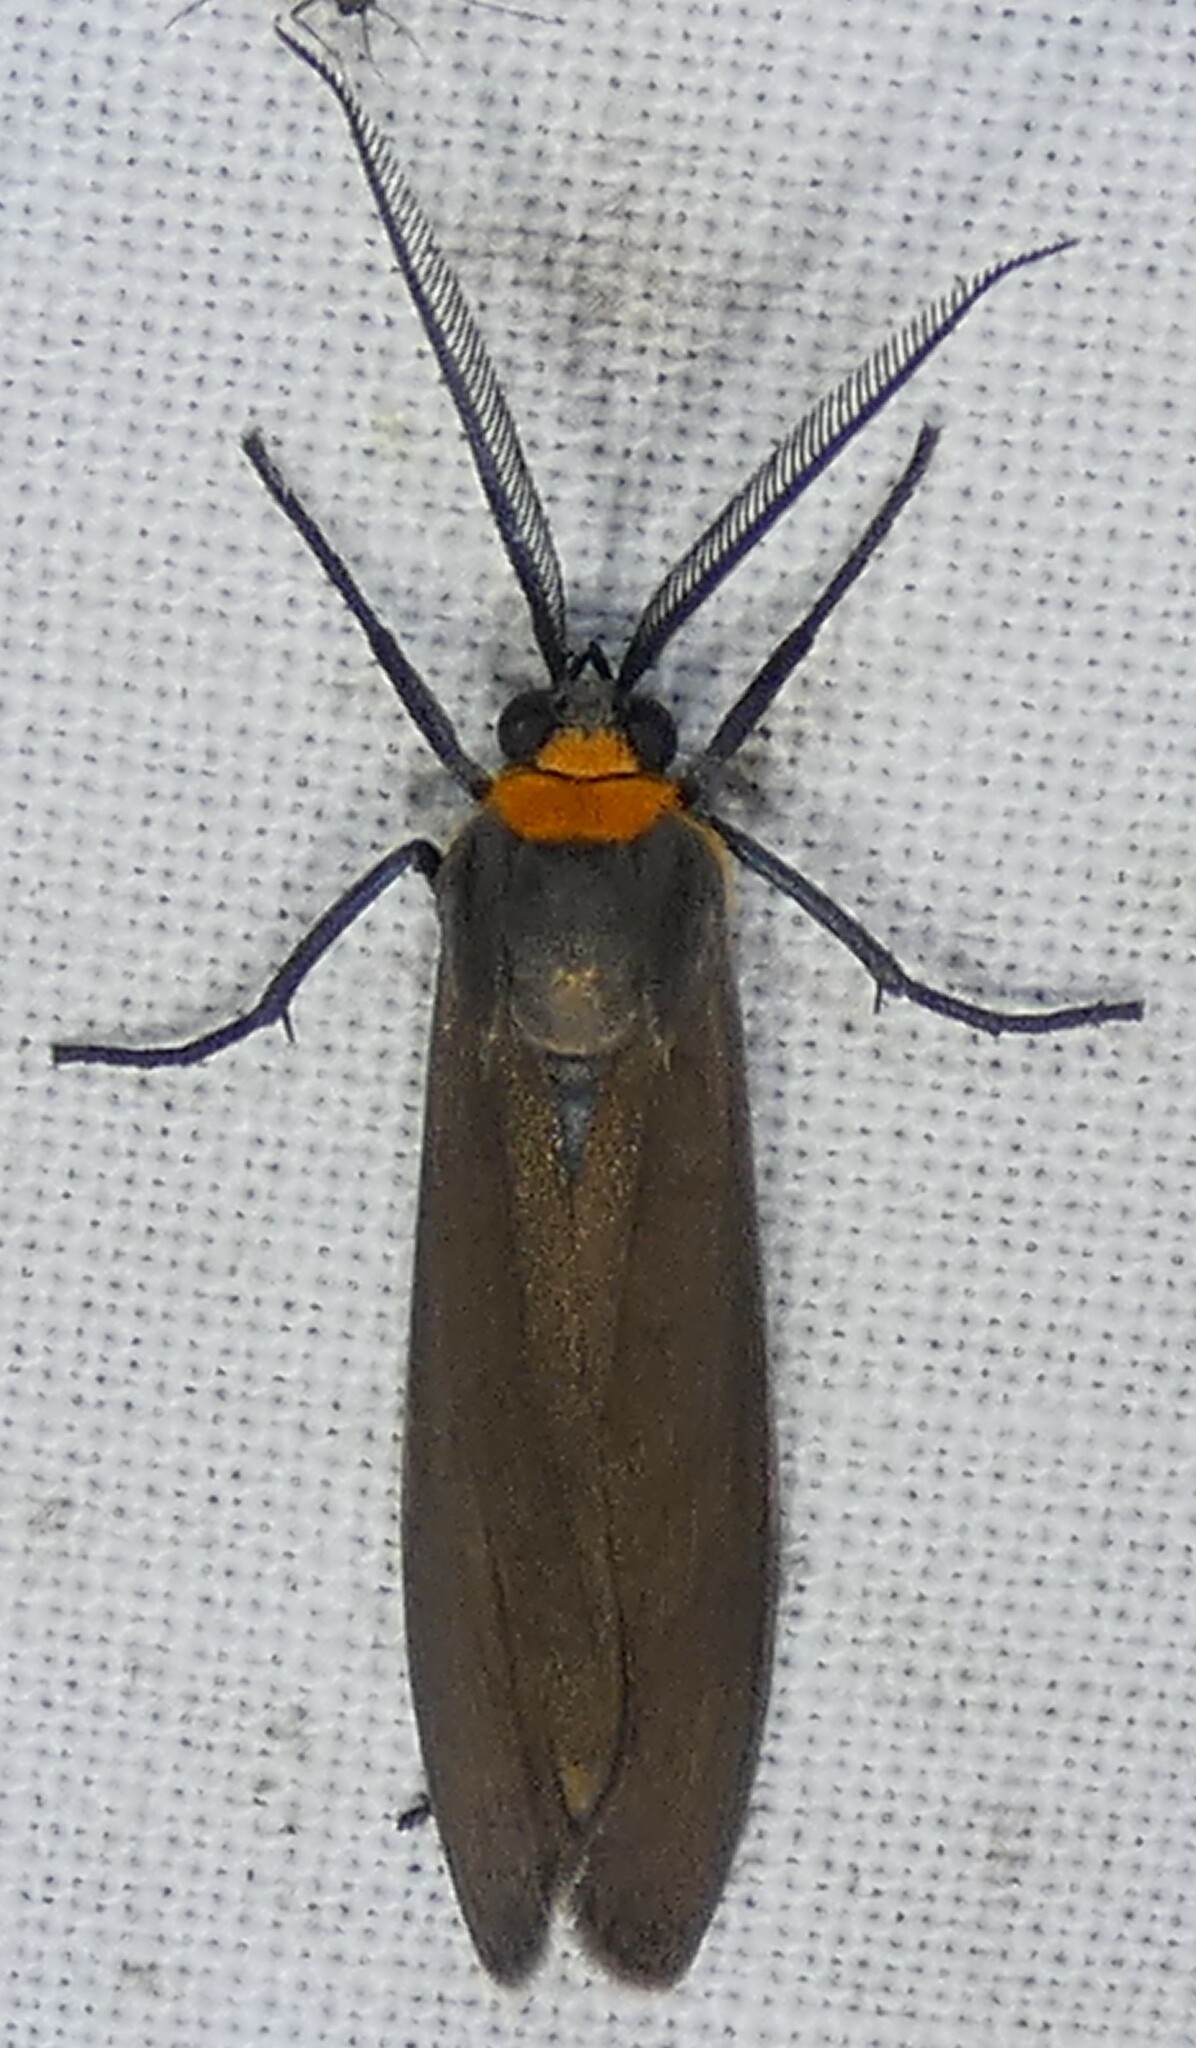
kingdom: Animalia
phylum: Arthropoda
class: Insecta
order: Lepidoptera
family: Erebidae
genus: Cisseps
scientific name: Cisseps fulvicollis
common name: Yellow-collared scape moth
